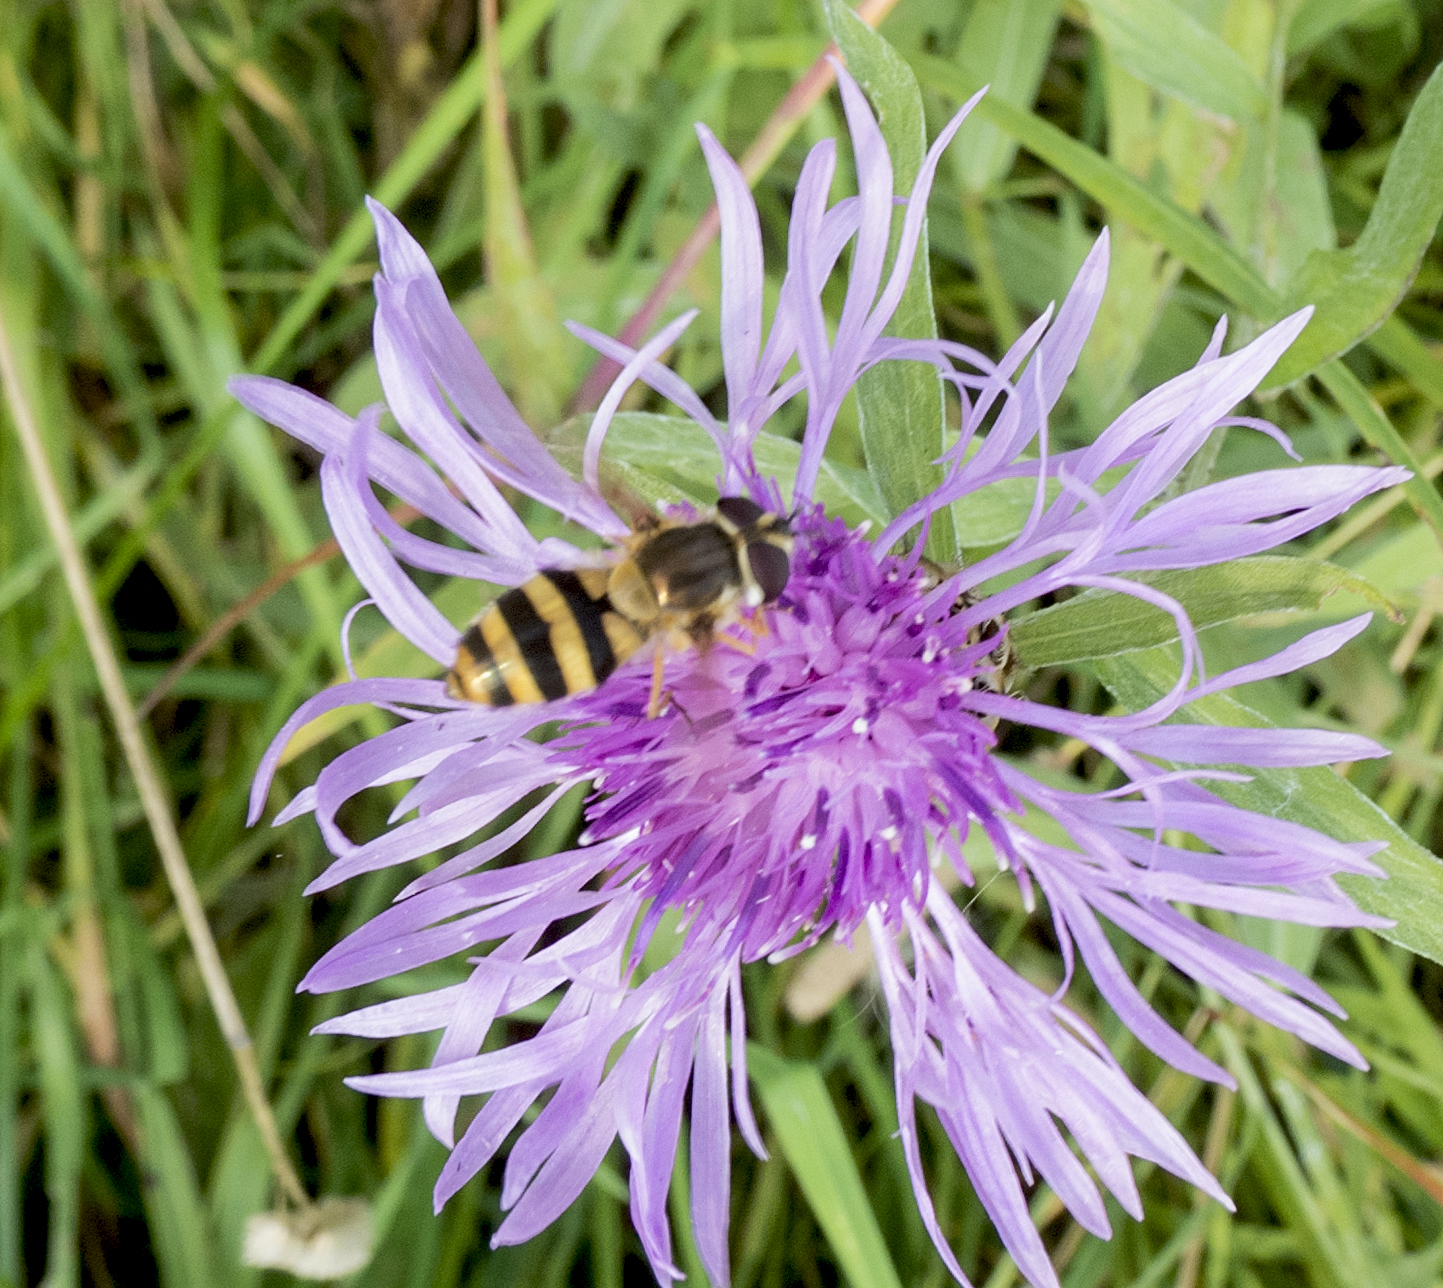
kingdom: Animalia
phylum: Arthropoda
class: Insecta
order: Diptera
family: Syrphidae
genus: Epistrophe
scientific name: Epistrophe grossulariae
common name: Black-horned smoothtail
